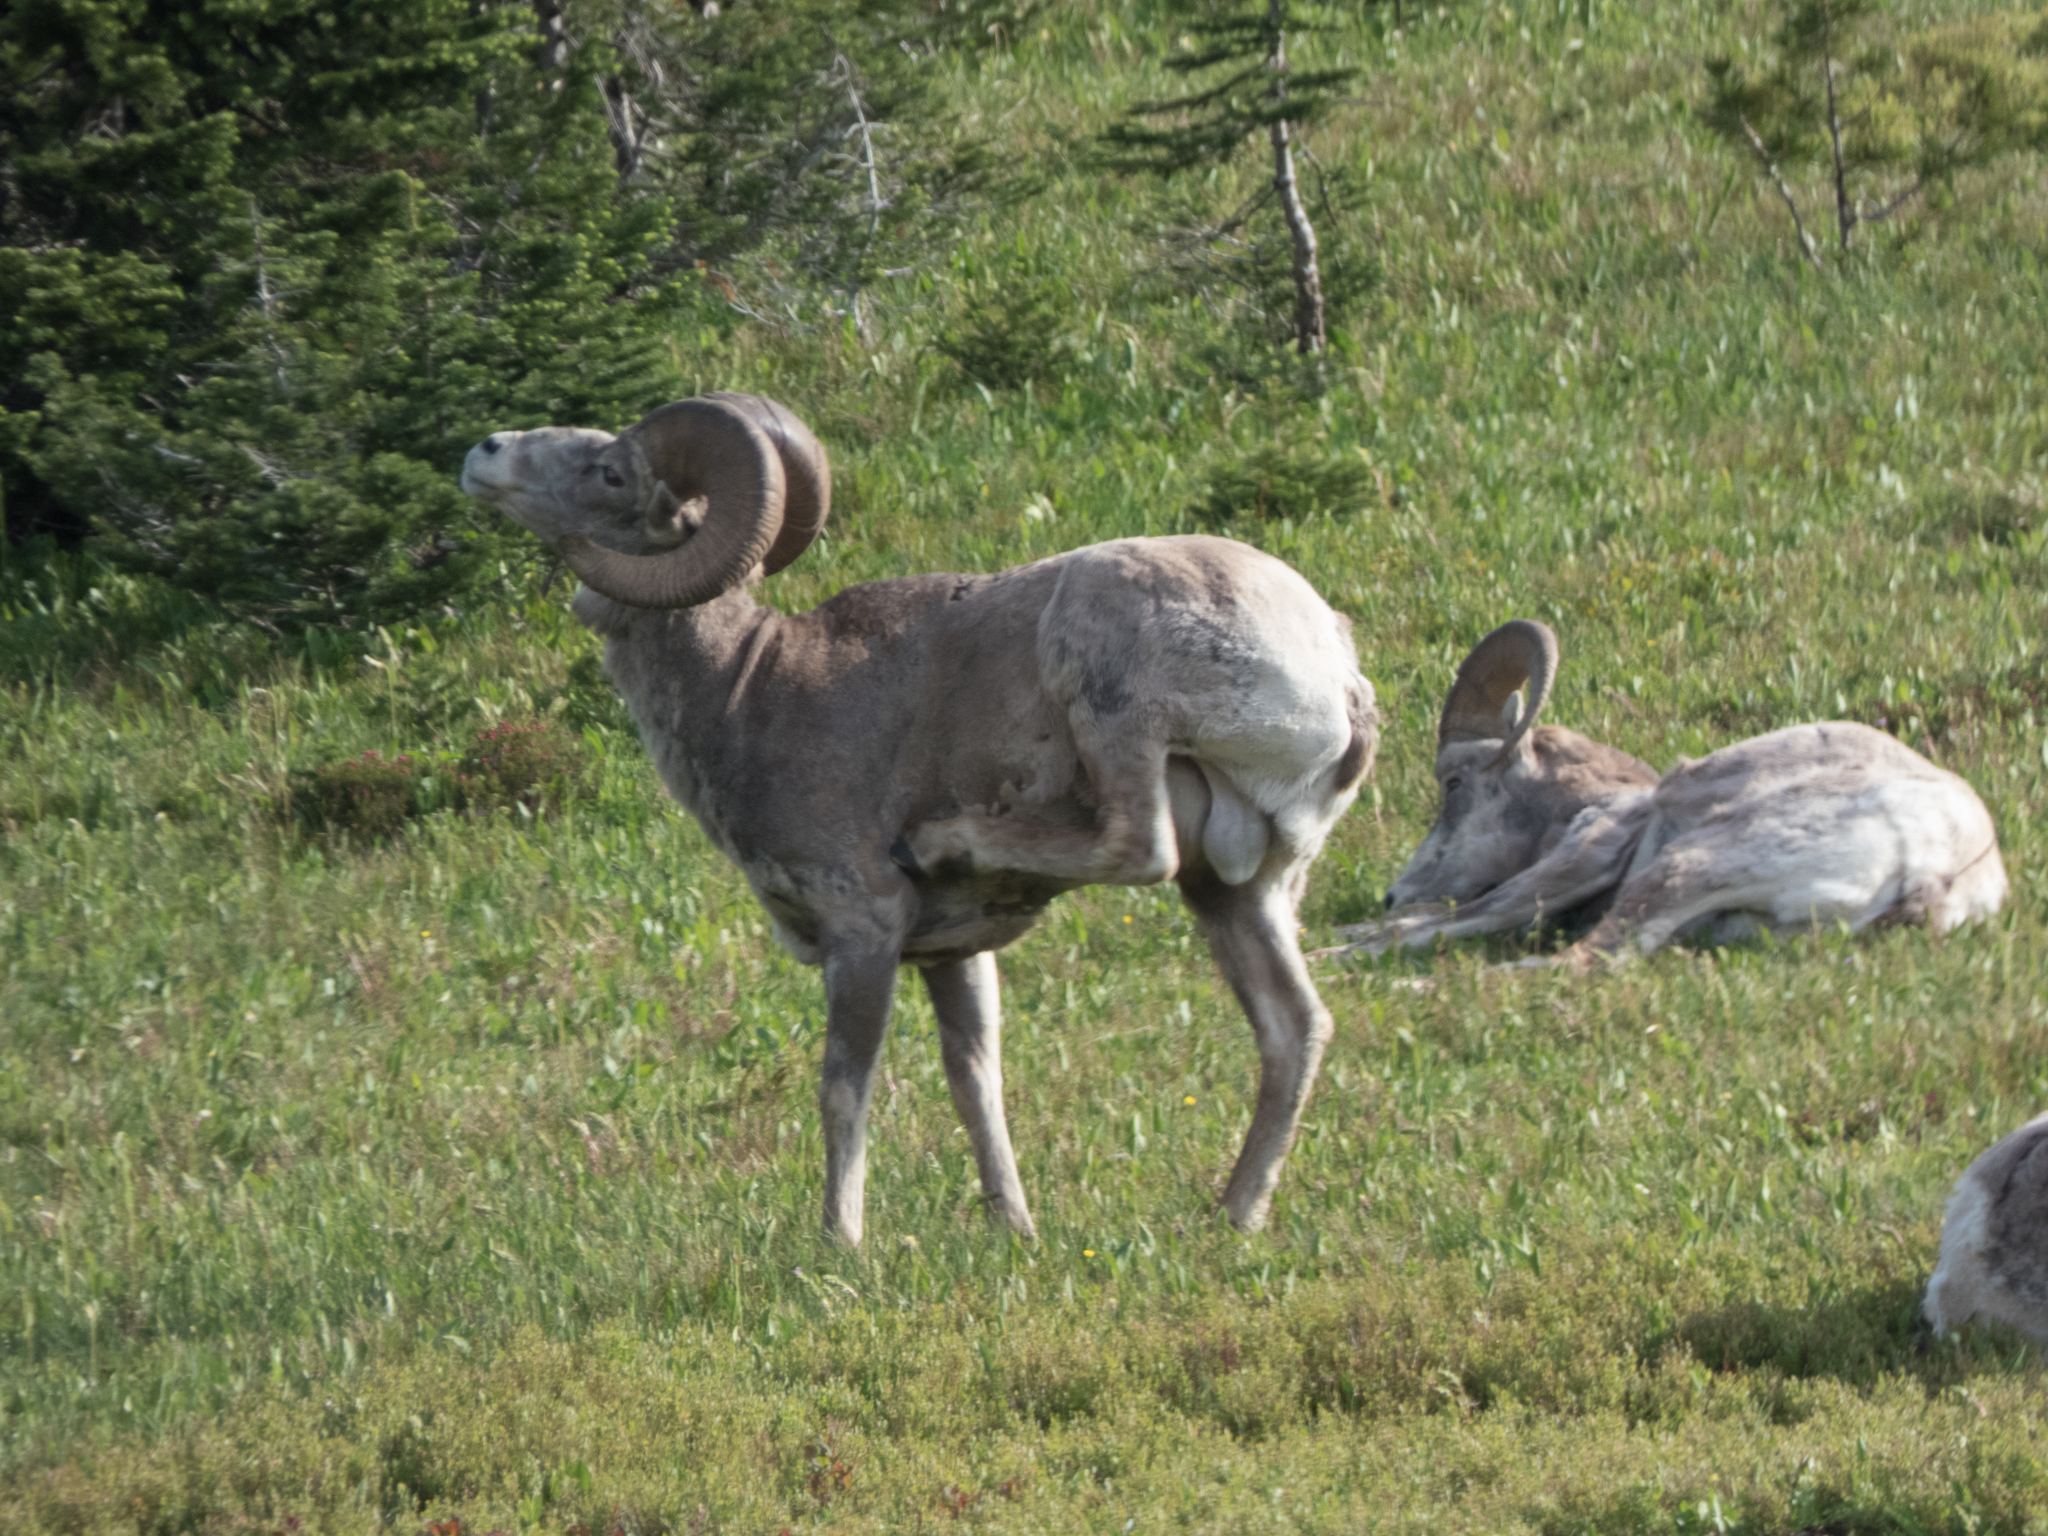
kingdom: Animalia
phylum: Chordata
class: Mammalia
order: Artiodactyla
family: Bovidae
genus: Ovis
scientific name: Ovis canadensis
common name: Bighorn sheep
